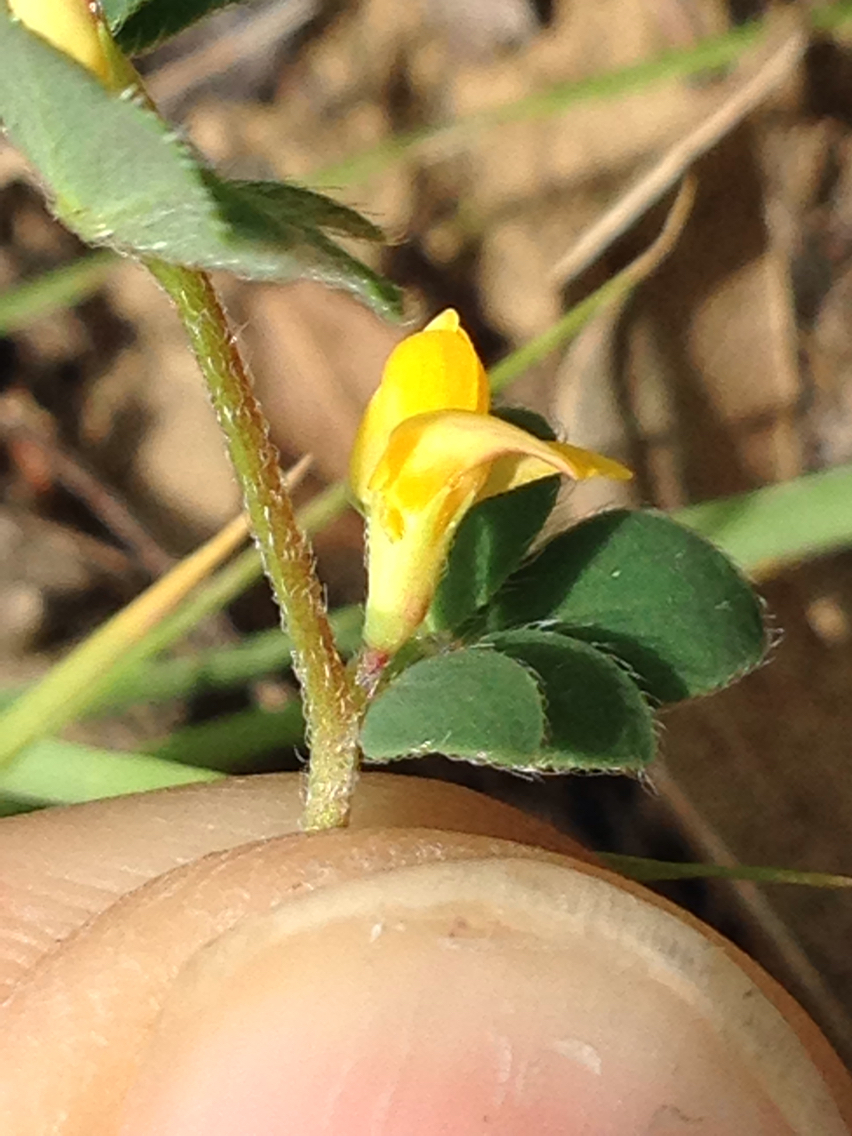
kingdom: Plantae
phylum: Tracheophyta
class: Magnoliopsida
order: Fabales
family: Fabaceae
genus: Acmispon
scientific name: Acmispon wrangelianus
